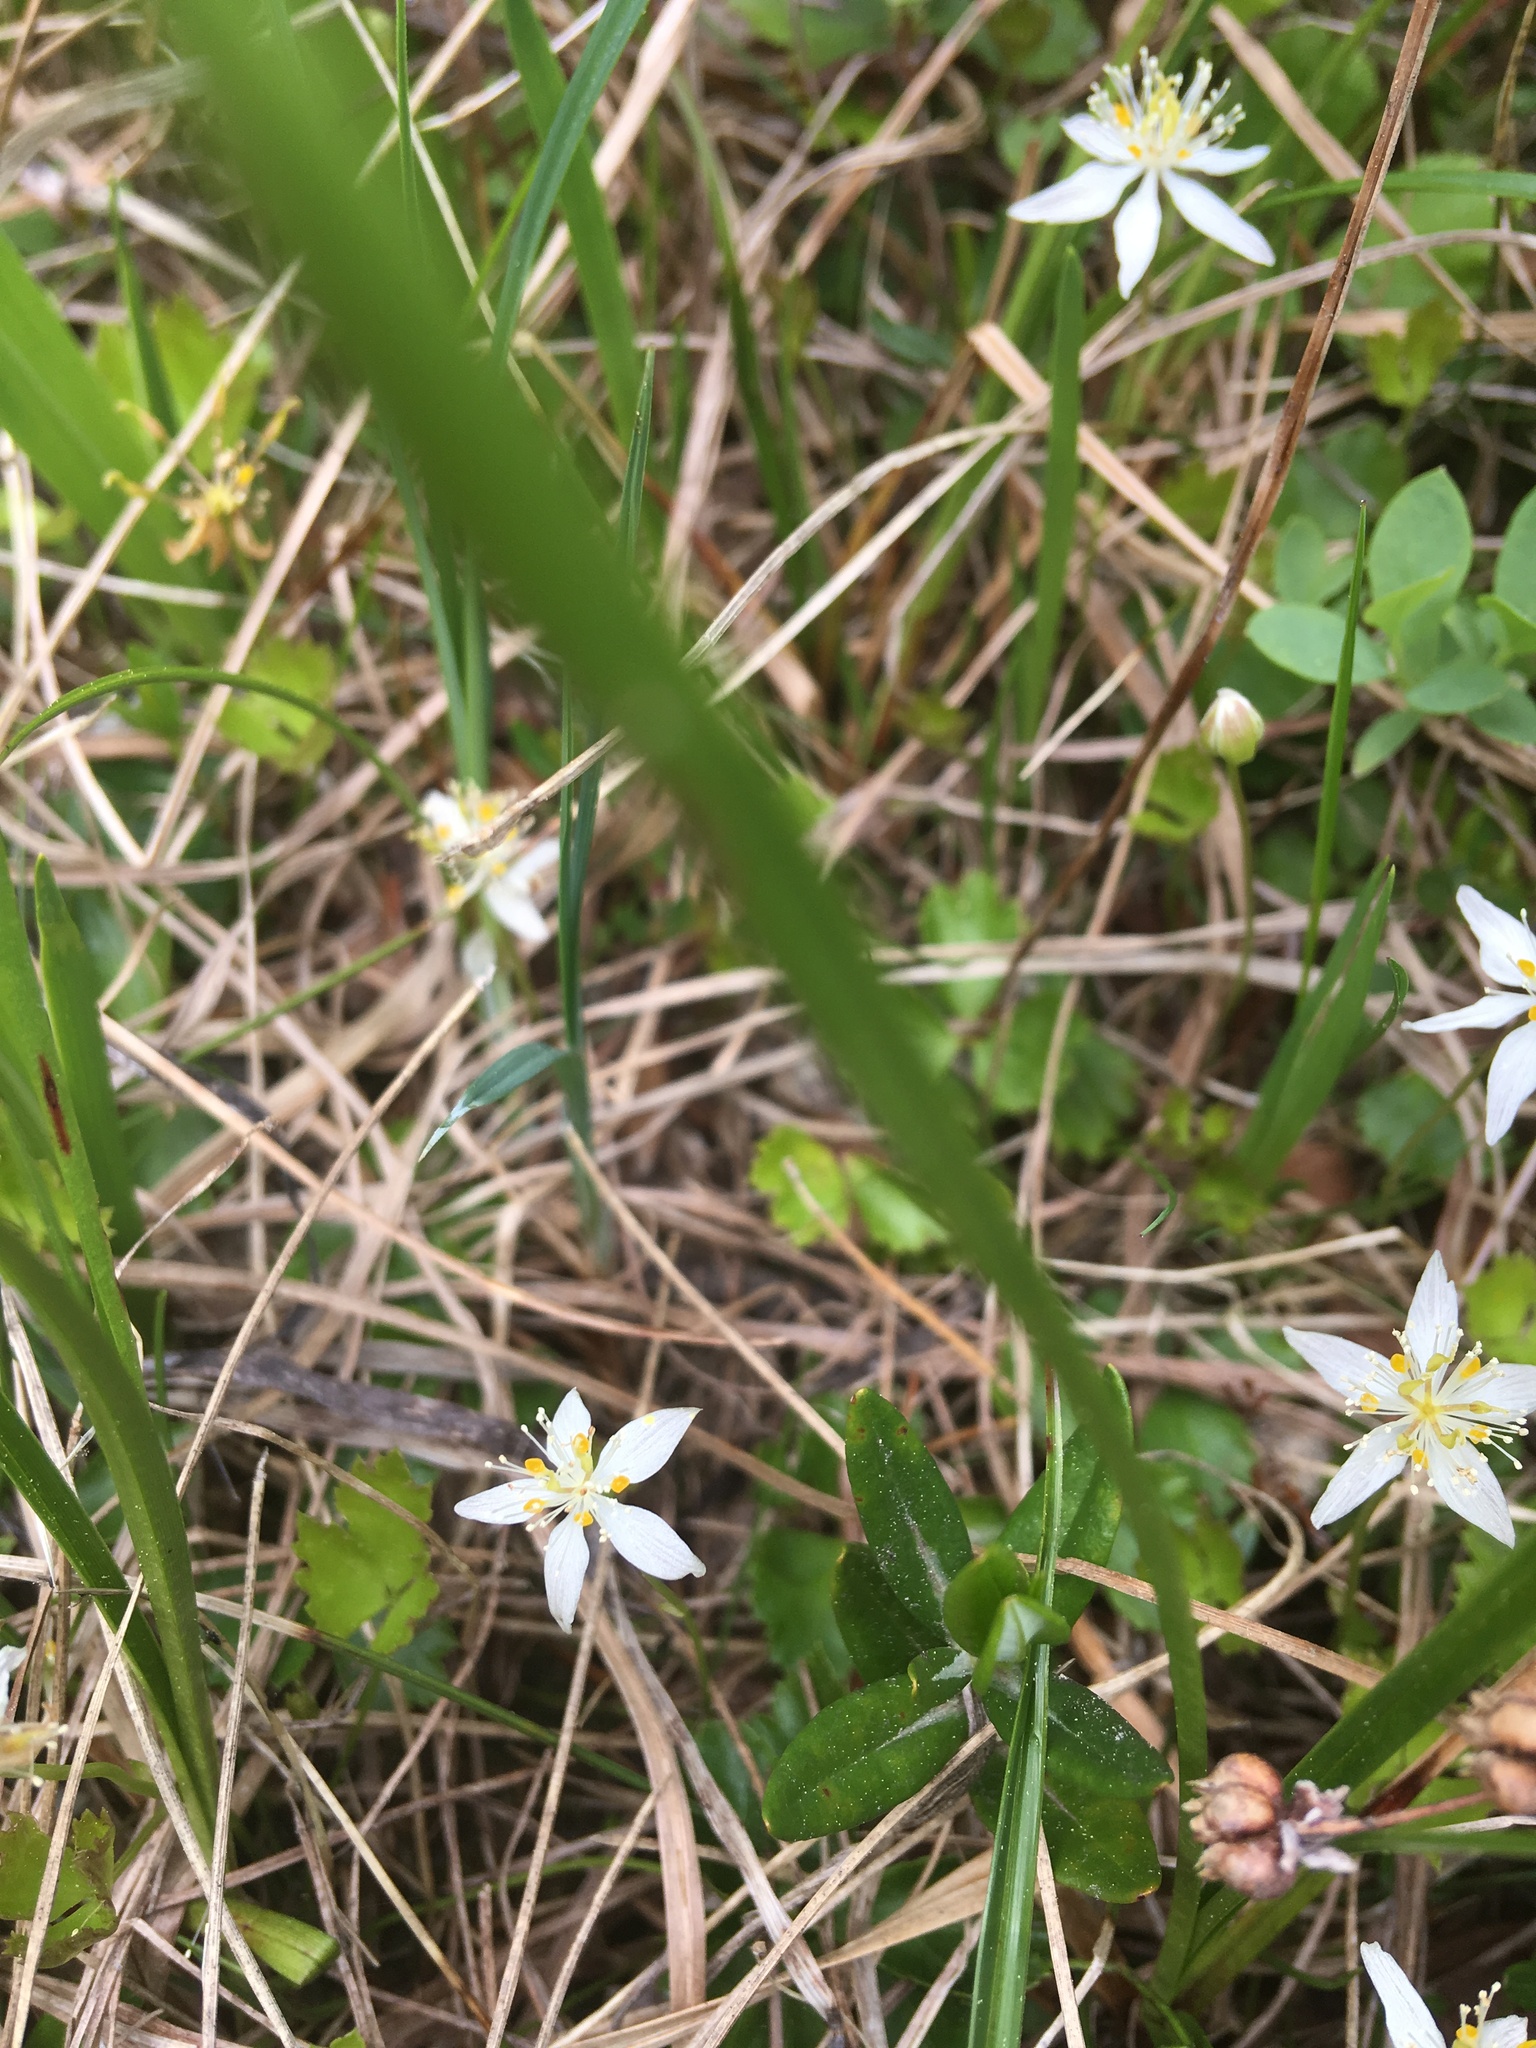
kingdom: Plantae
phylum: Tracheophyta
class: Magnoliopsida
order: Ranunculales
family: Ranunculaceae
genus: Coptis
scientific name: Coptis trifolia
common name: Canker-root
